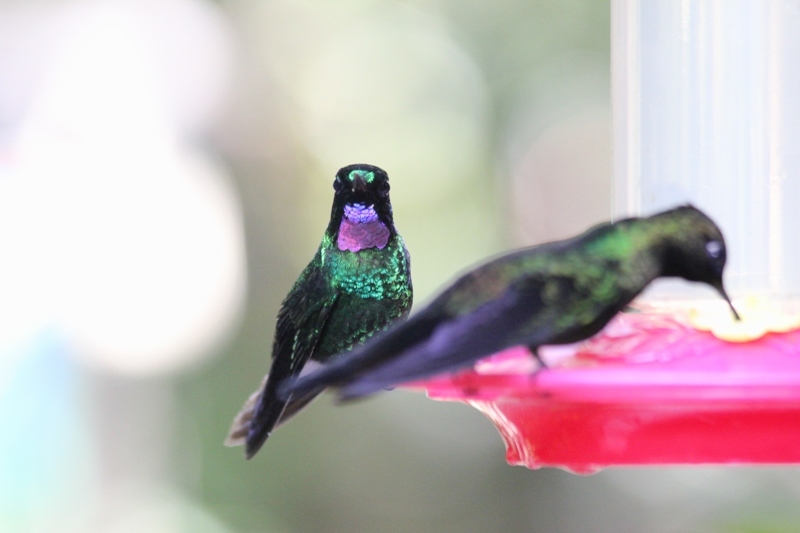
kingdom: Animalia
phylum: Chordata
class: Aves
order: Apodiformes
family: Trochilidae
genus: Heliangelus
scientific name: Heliangelus exortis
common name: Tourmaline sunangel
